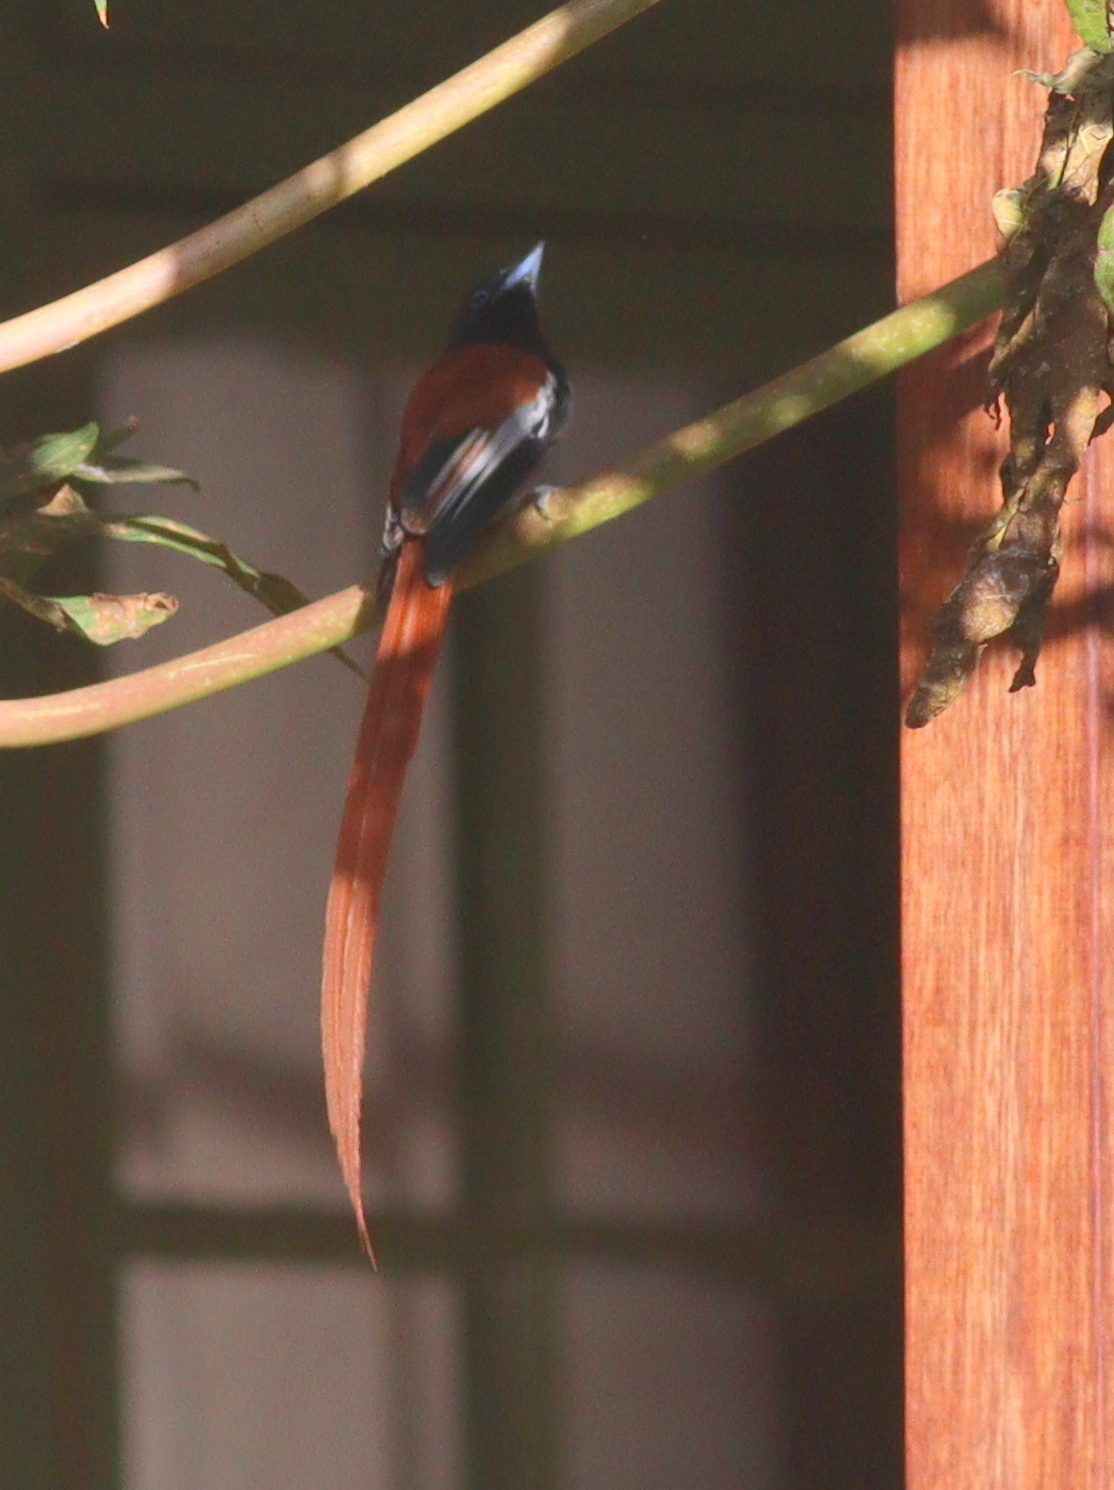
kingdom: Animalia
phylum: Chordata
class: Aves
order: Passeriformes
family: Monarchidae
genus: Terpsiphone
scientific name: Terpsiphone viridis
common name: African paradise flycatcher
